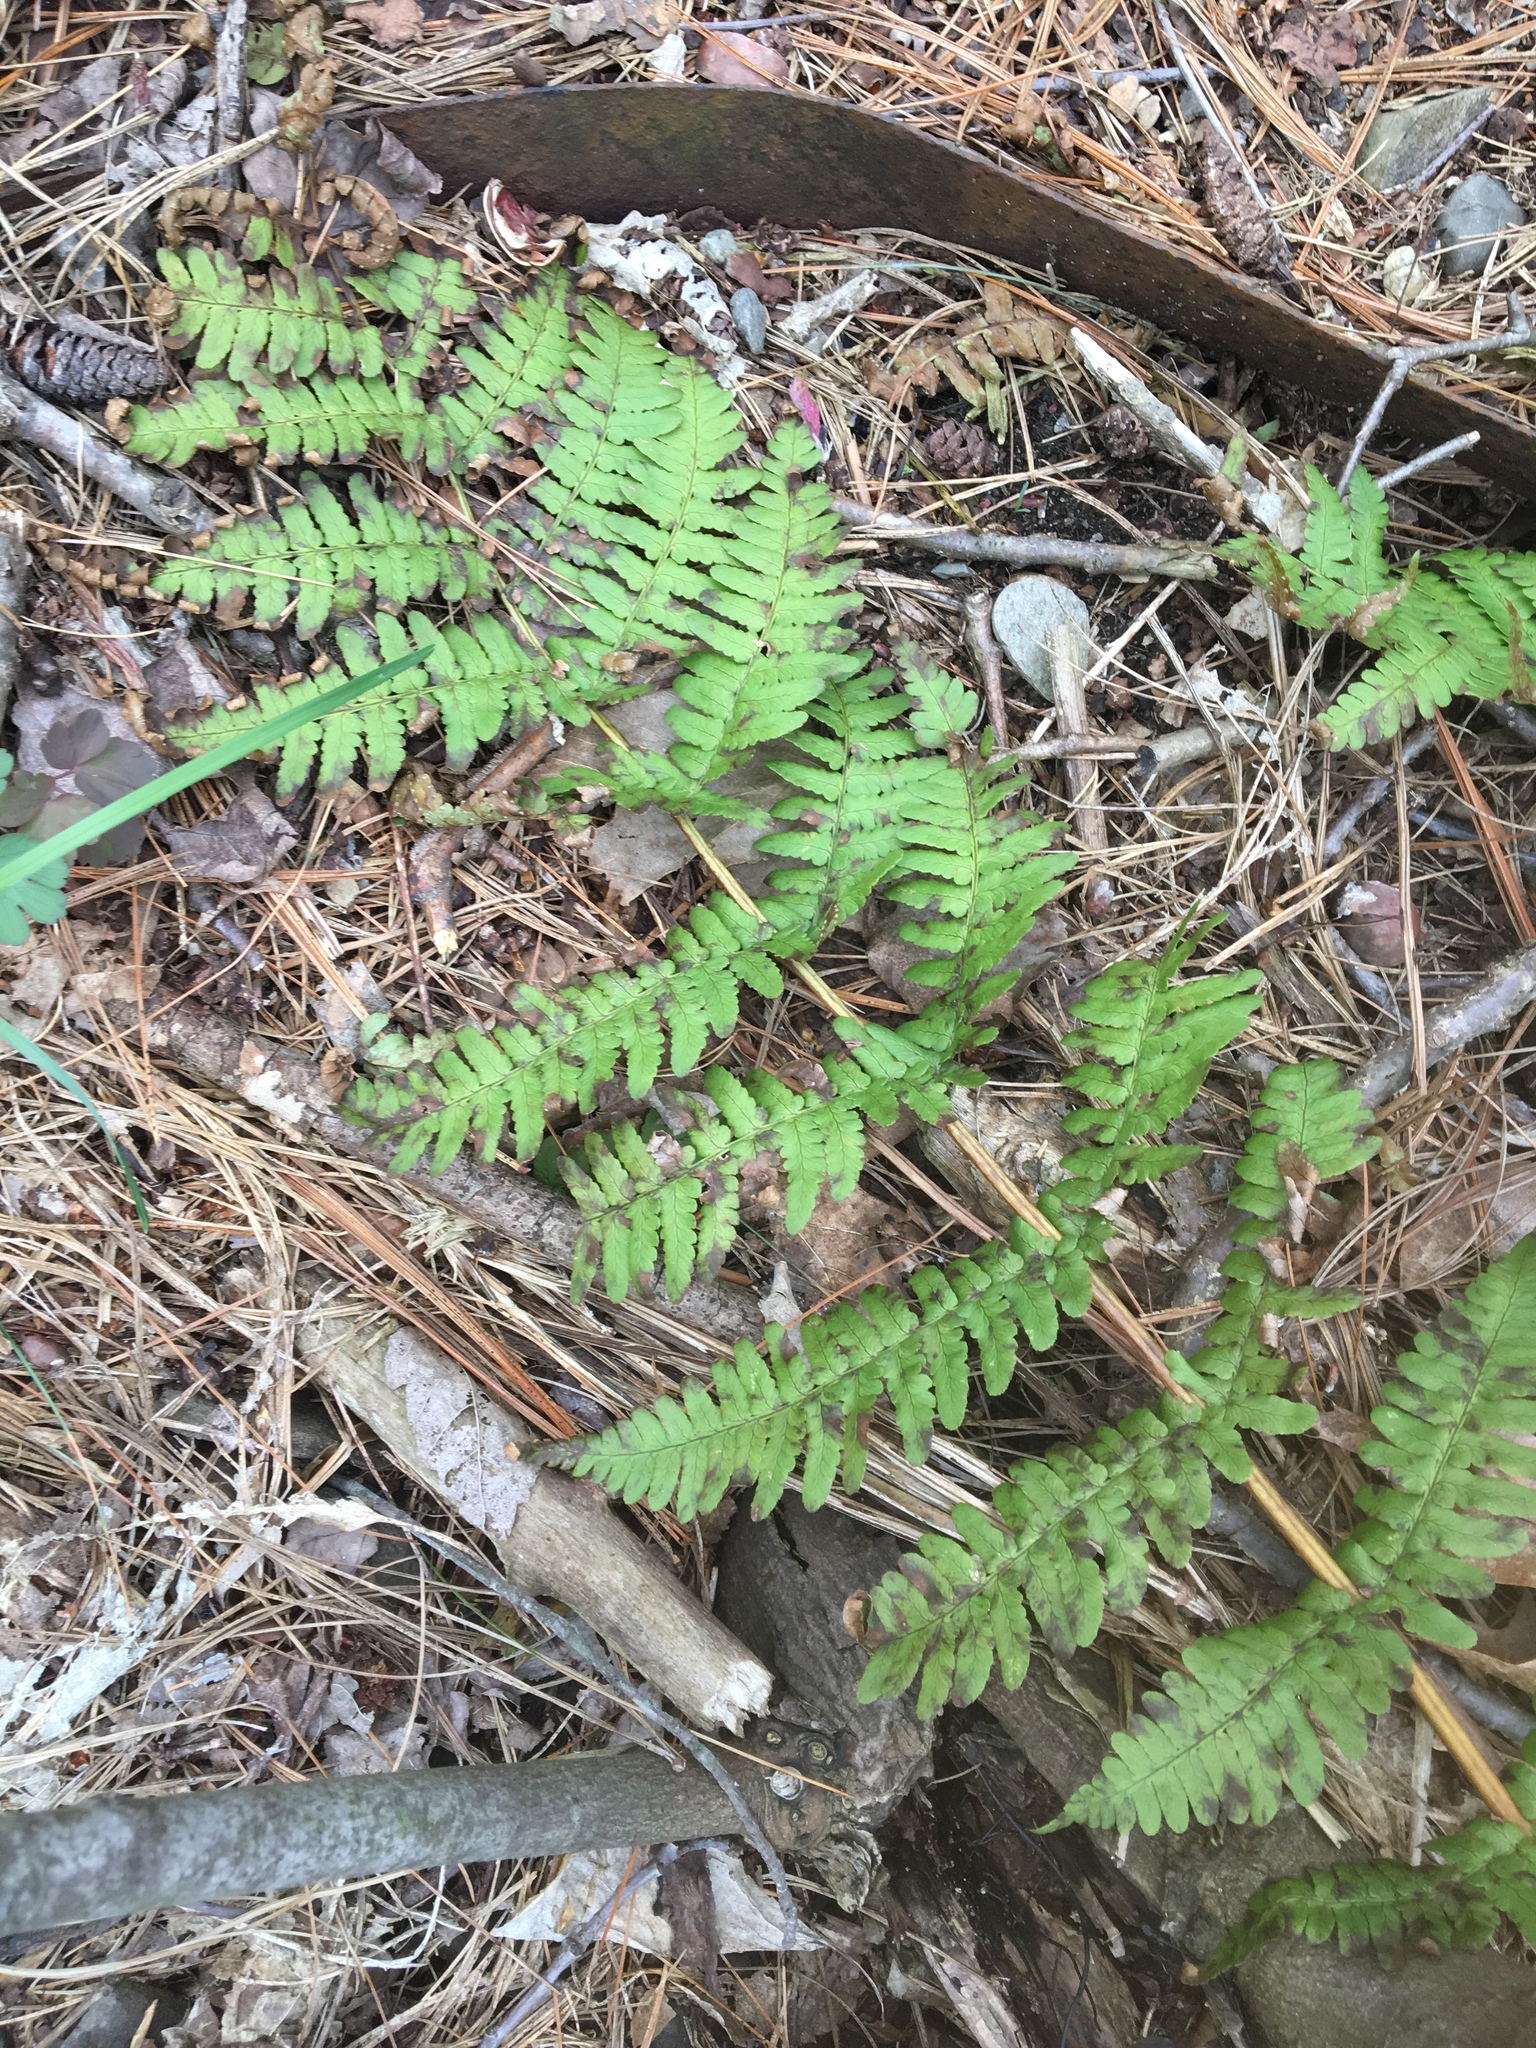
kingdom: Plantae
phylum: Tracheophyta
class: Polypodiopsida
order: Polypodiales
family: Dryopteridaceae
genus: Dryopteris
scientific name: Dryopteris marginalis
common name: Marginal wood fern
